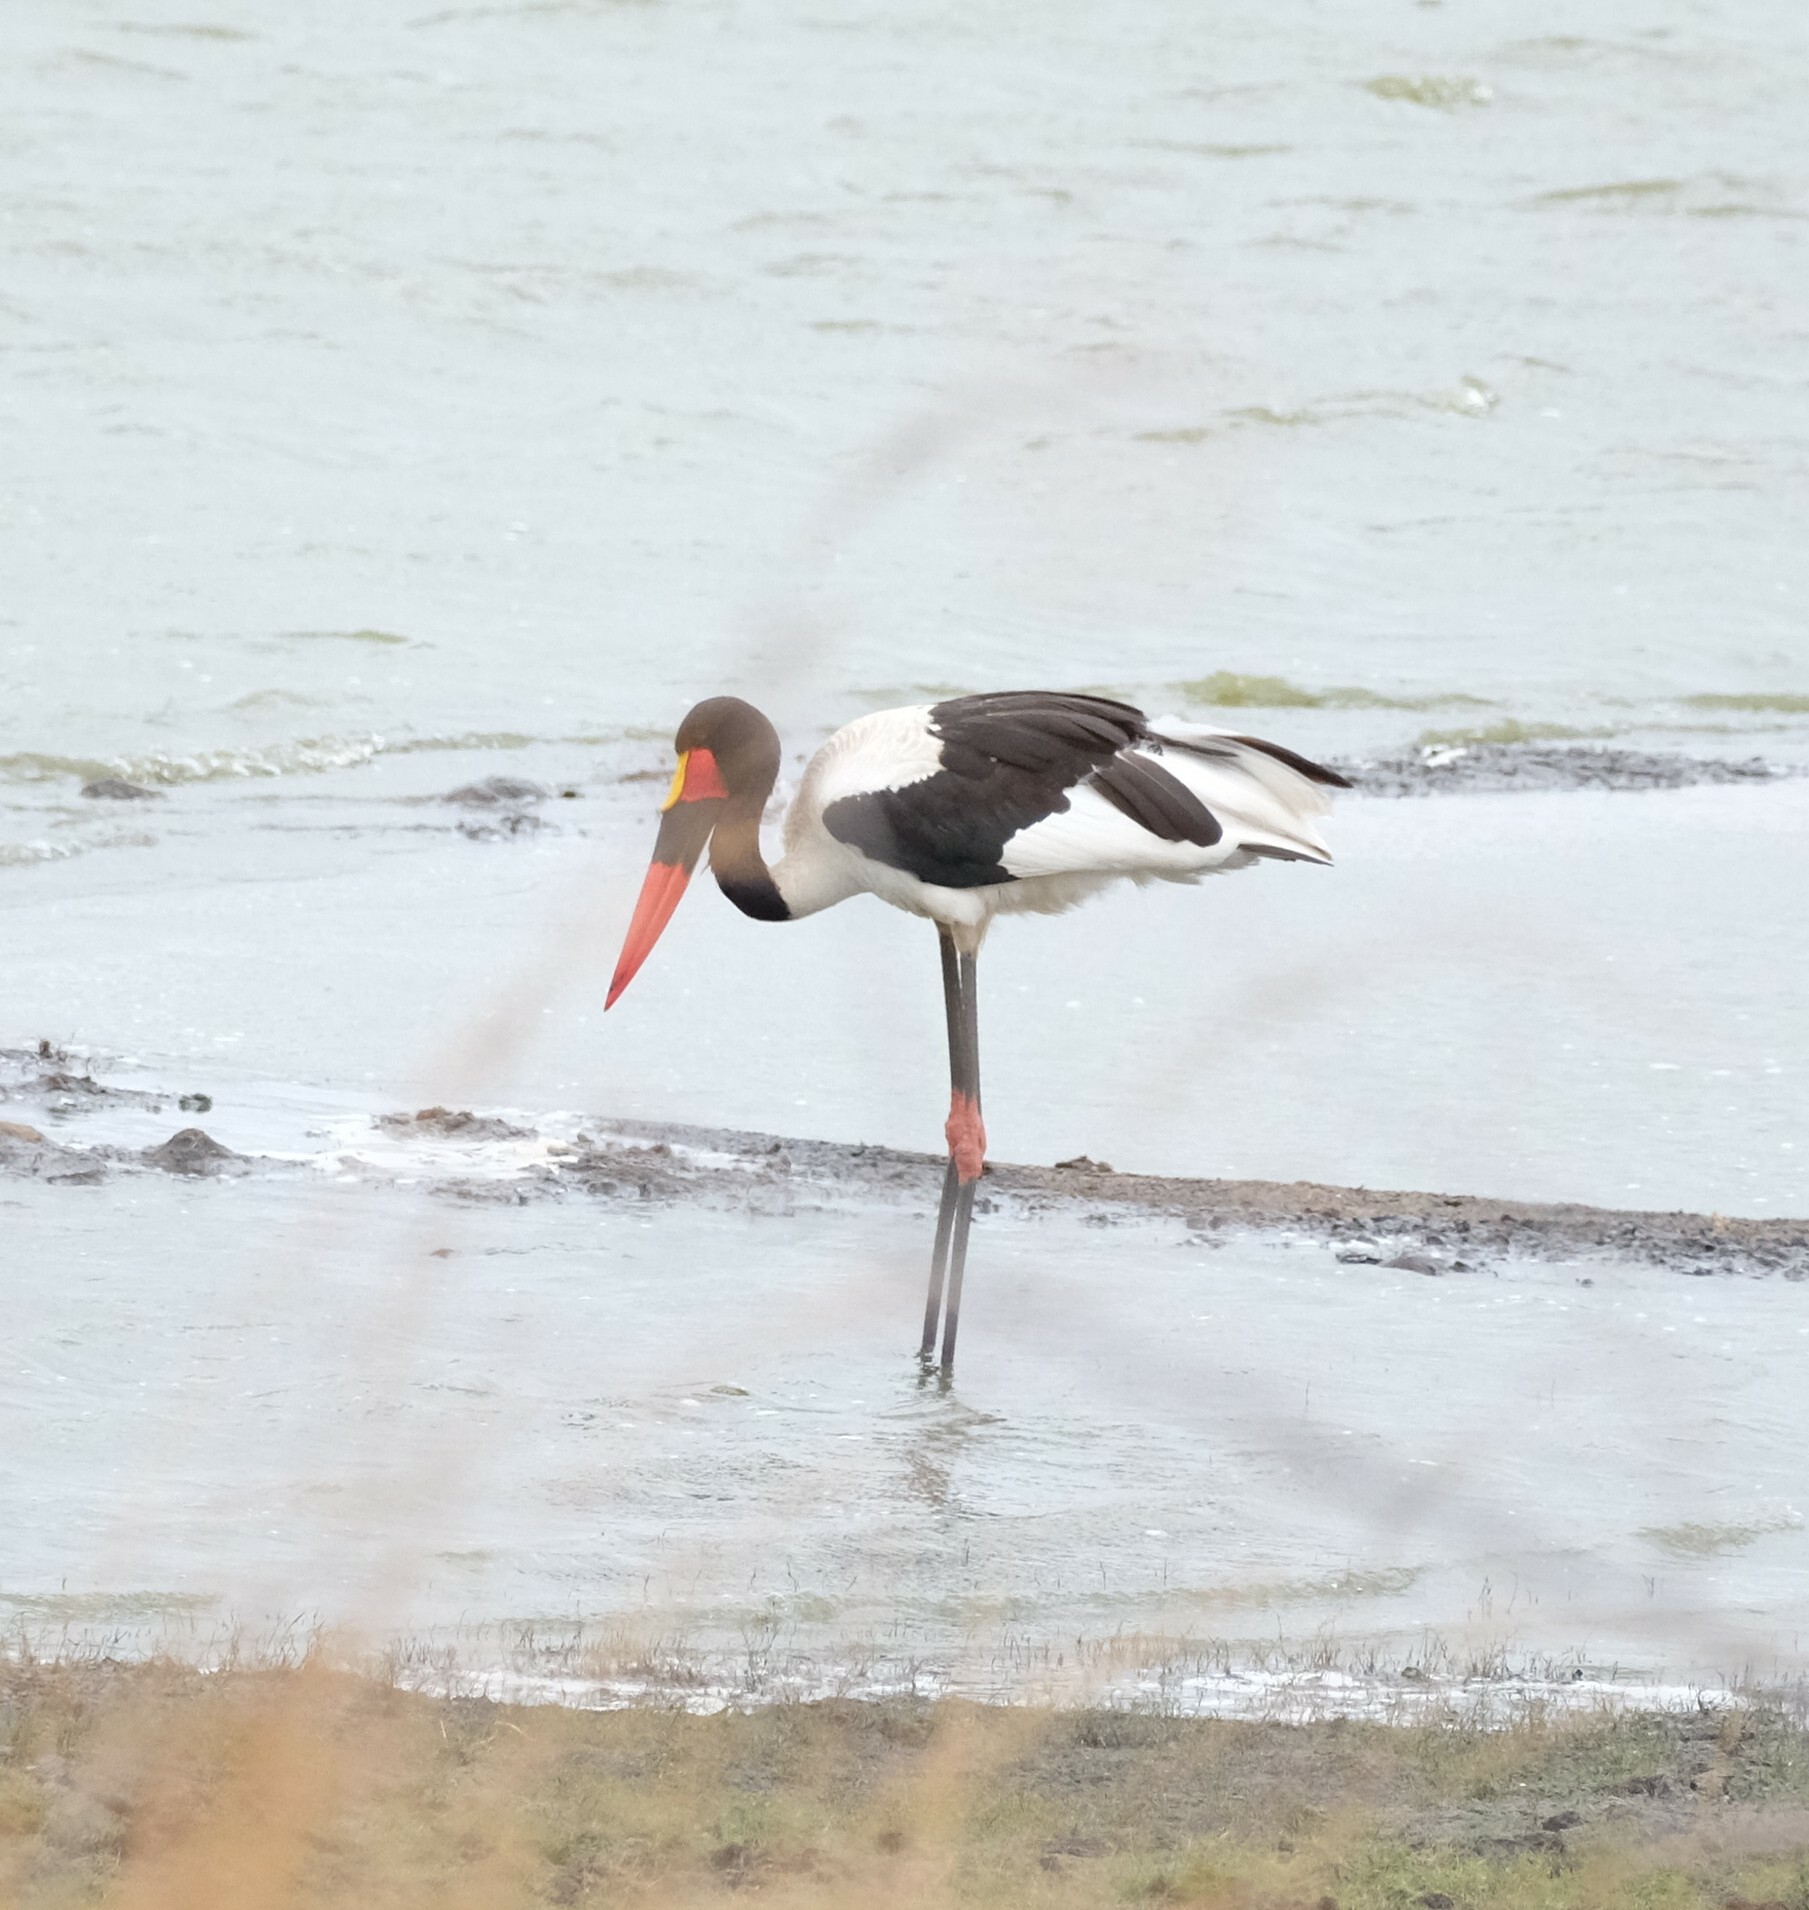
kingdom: Animalia
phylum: Chordata
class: Aves
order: Ciconiiformes
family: Ciconiidae
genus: Ephippiorhynchus
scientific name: Ephippiorhynchus senegalensis
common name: Saddle-billed stork
